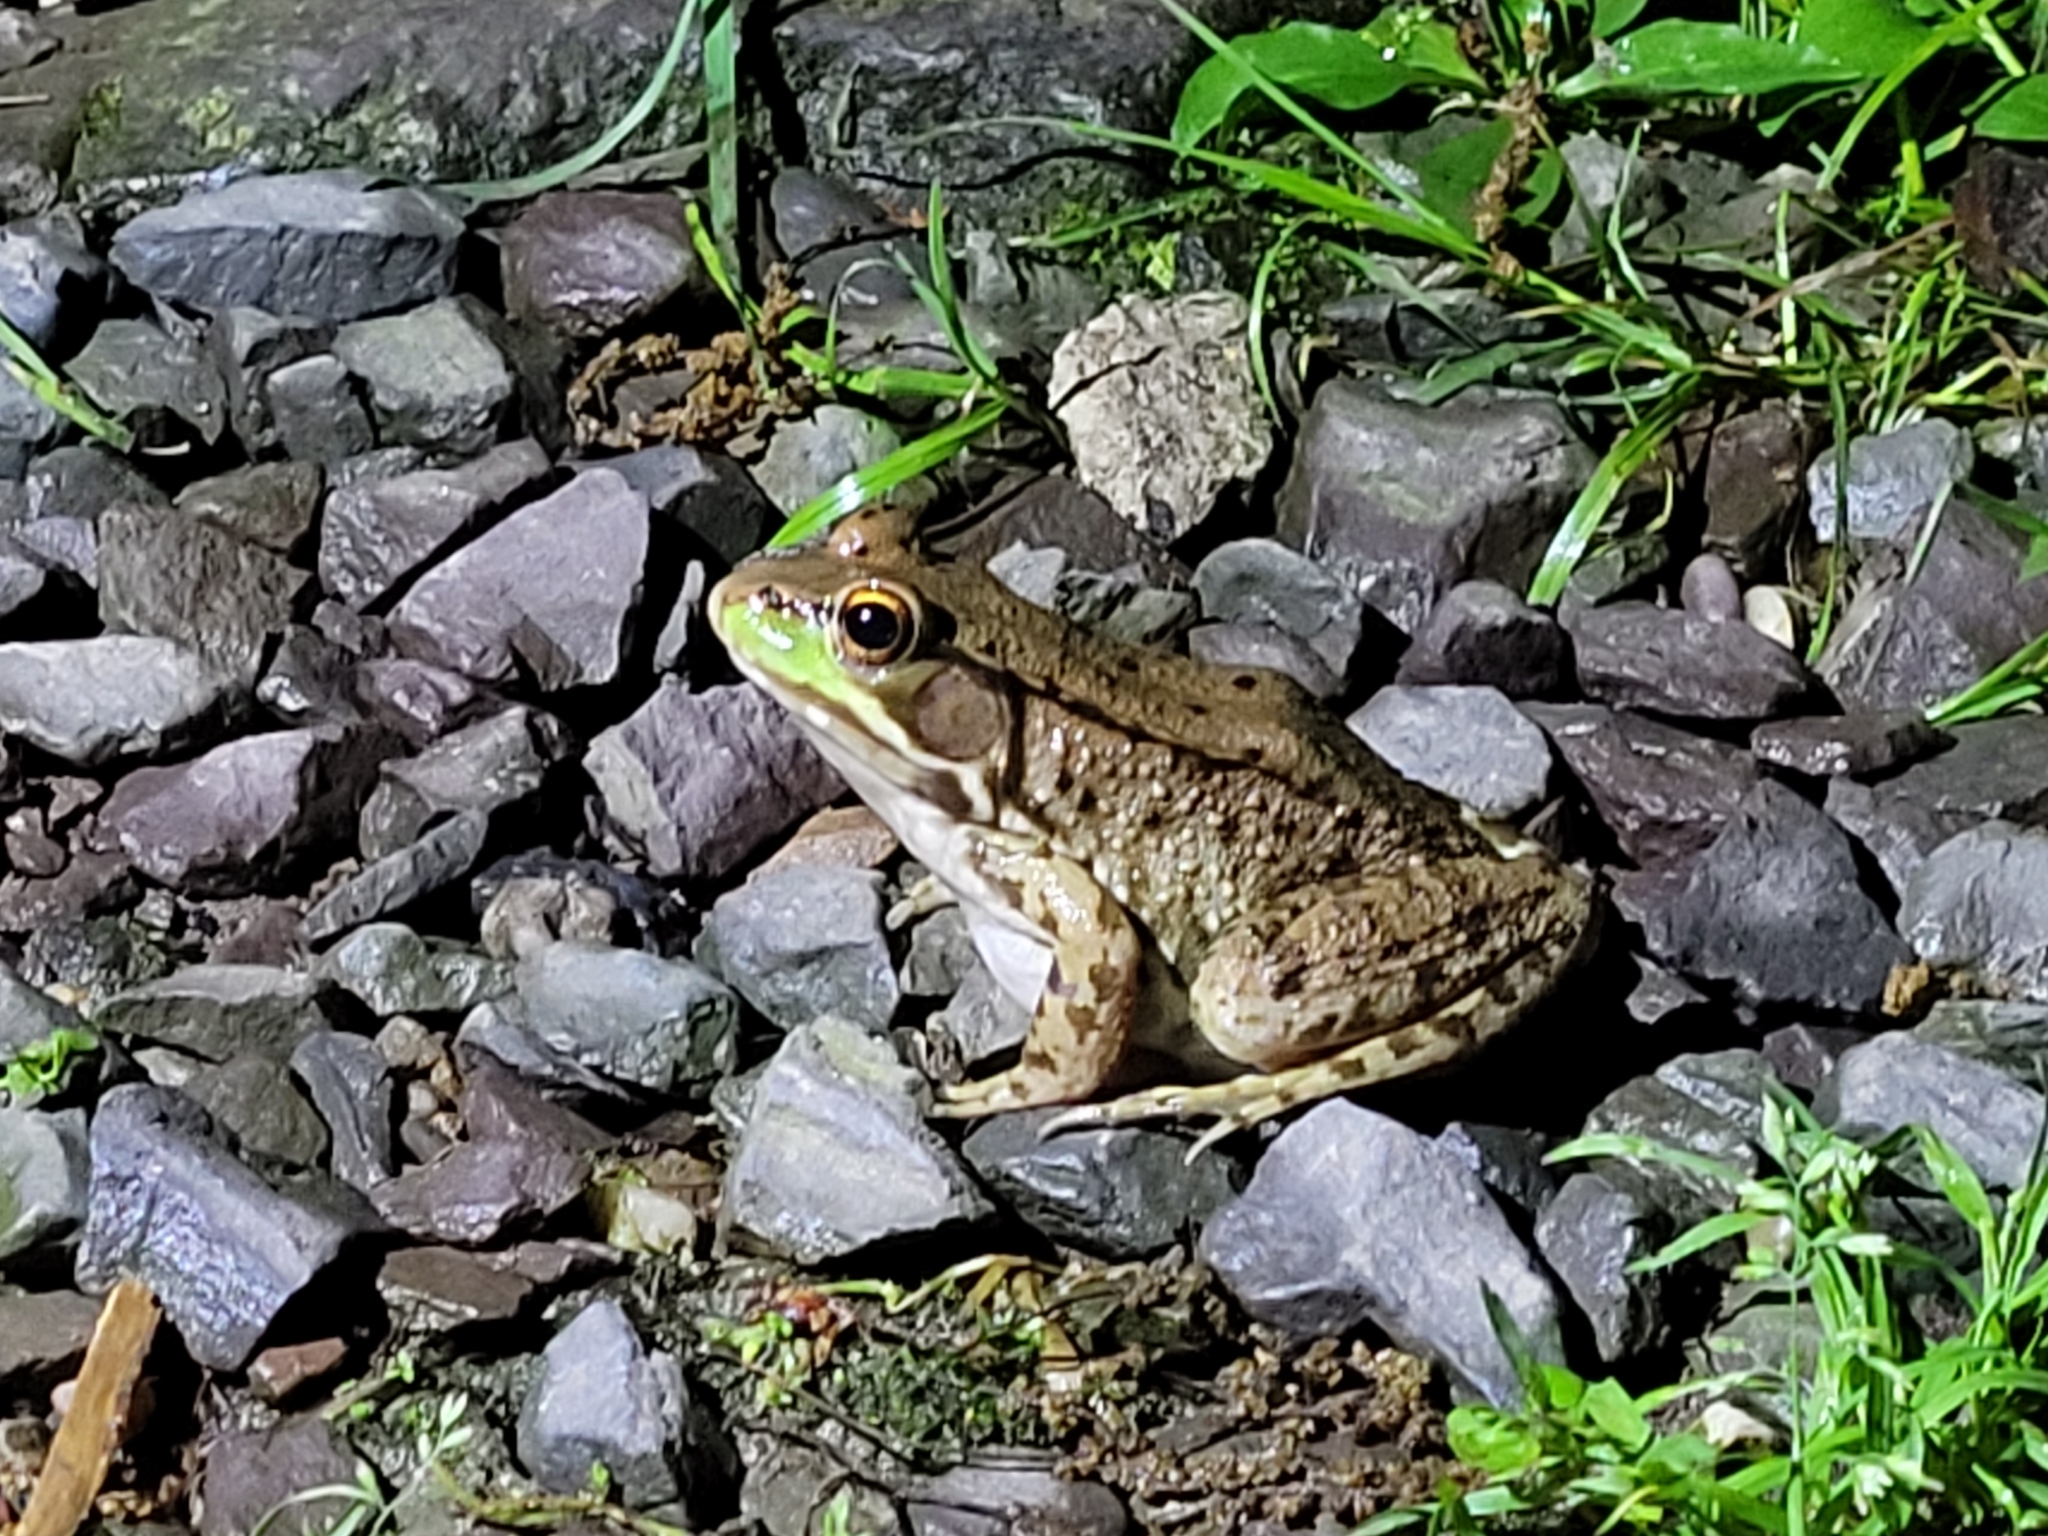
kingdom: Animalia
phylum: Chordata
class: Amphibia
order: Anura
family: Ranidae
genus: Lithobates
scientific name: Lithobates clamitans
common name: Green frog
